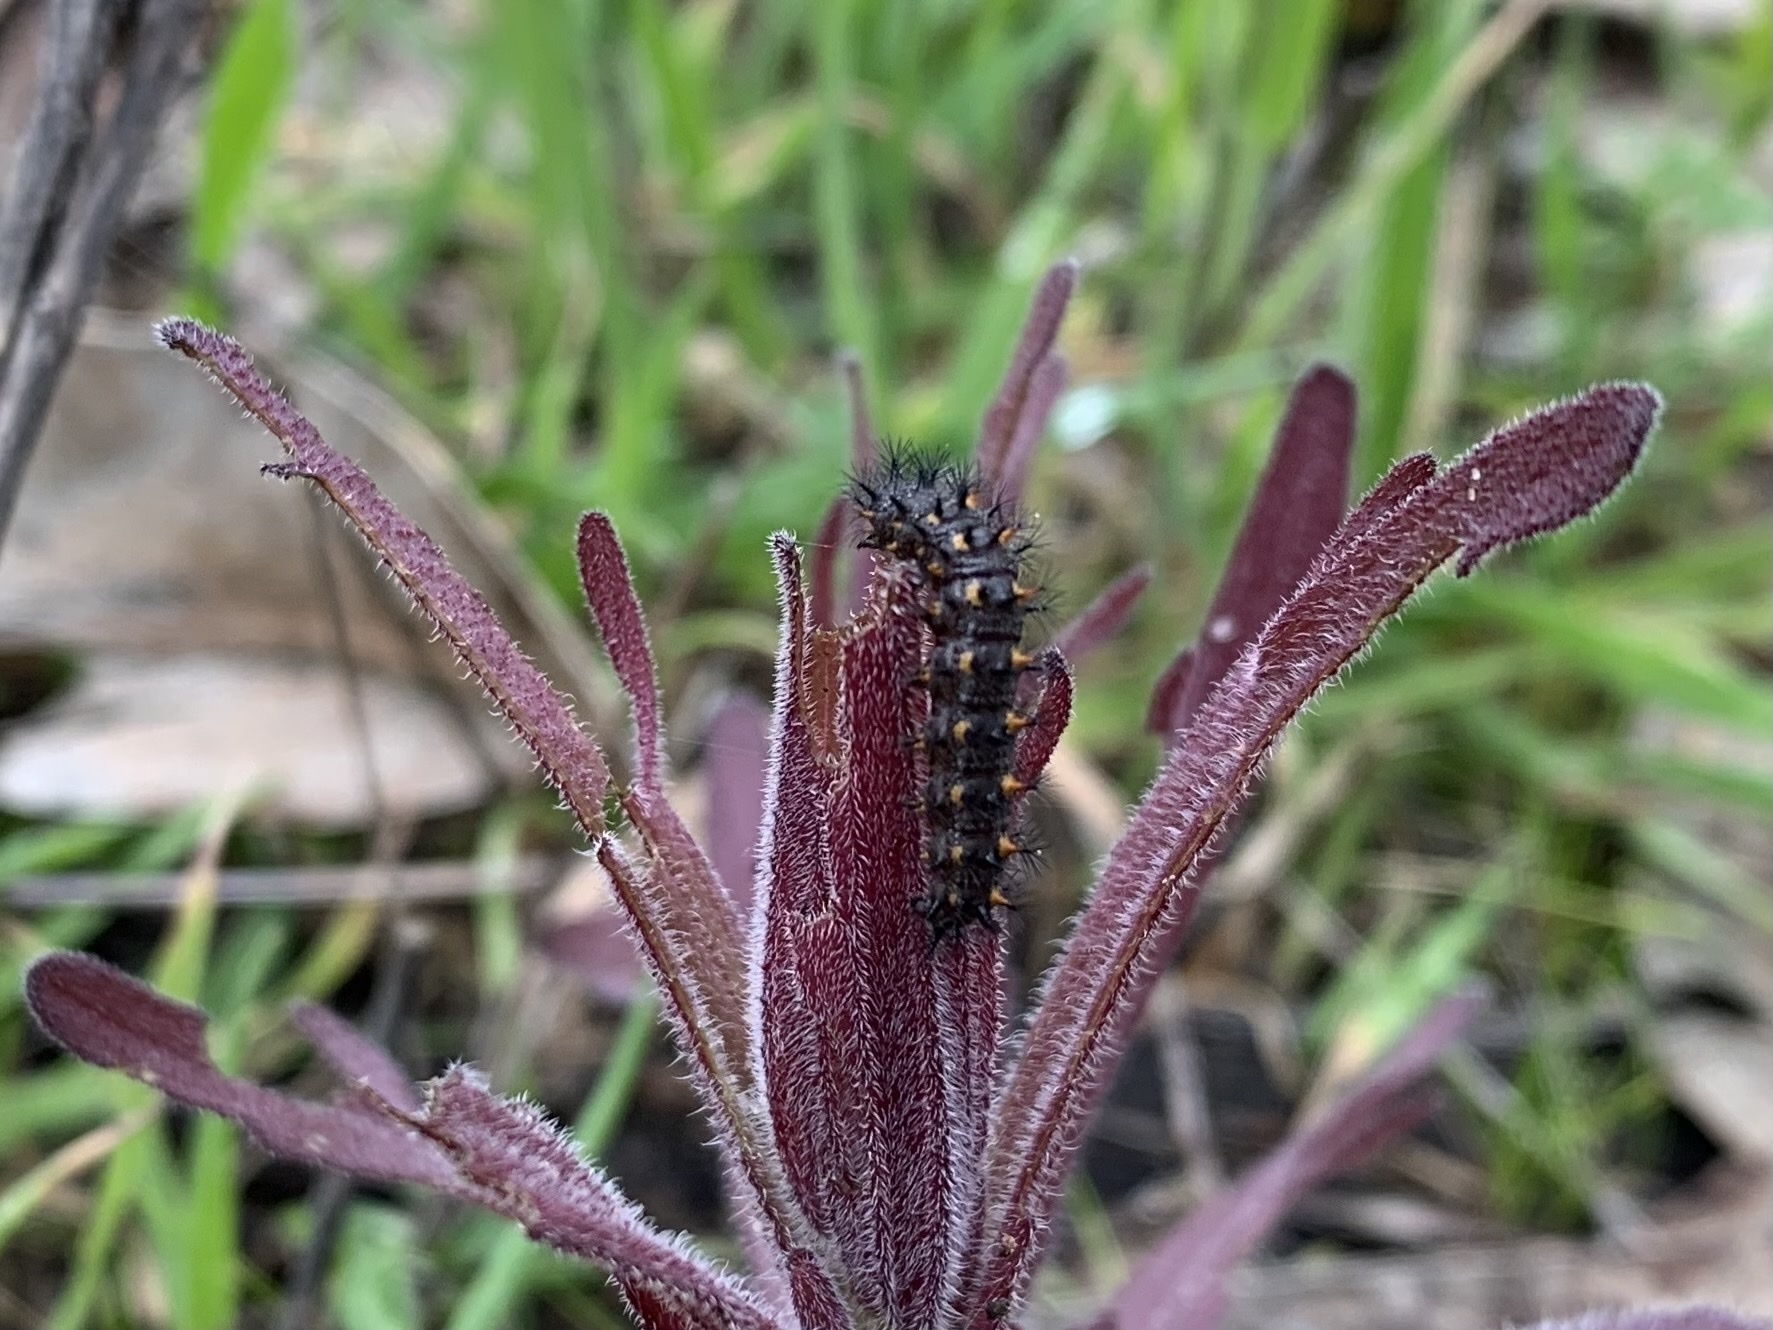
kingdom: Animalia
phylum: Arthropoda
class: Insecta
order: Lepidoptera
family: Nymphalidae
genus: Occidryas
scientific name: Occidryas chalcedona
